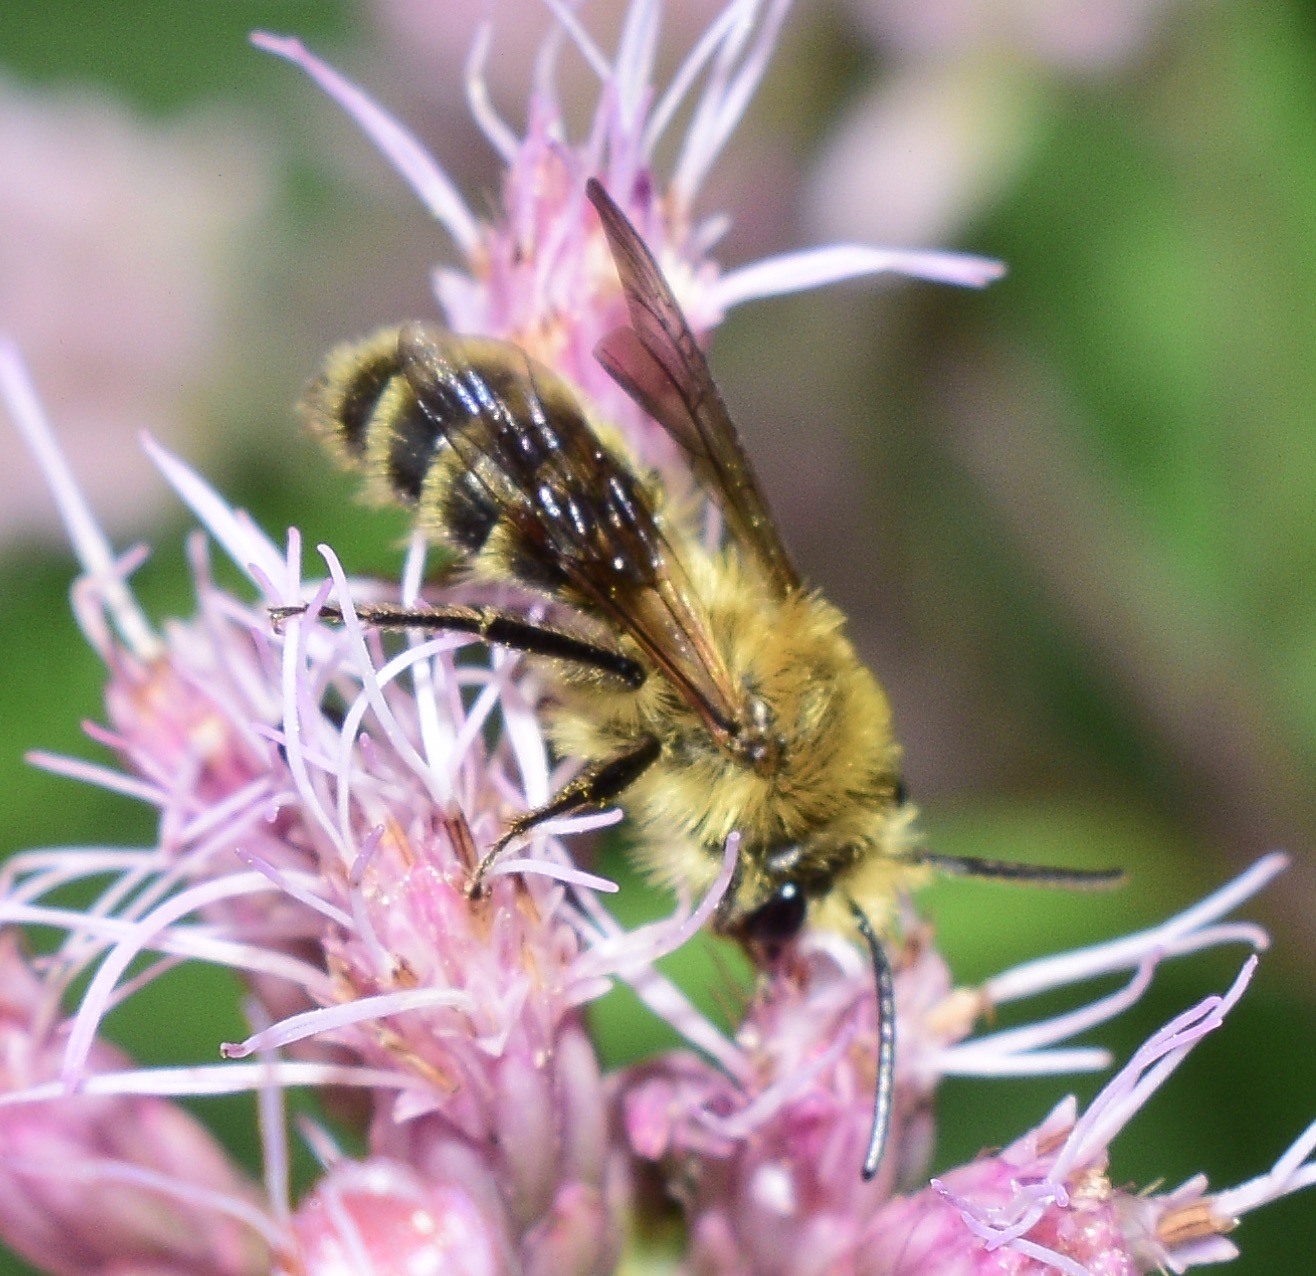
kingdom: Animalia
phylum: Arthropoda
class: Insecta
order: Hymenoptera
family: Andrenidae
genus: Andrena
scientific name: Andrena hirticincta
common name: Hairy-banded mining bee
